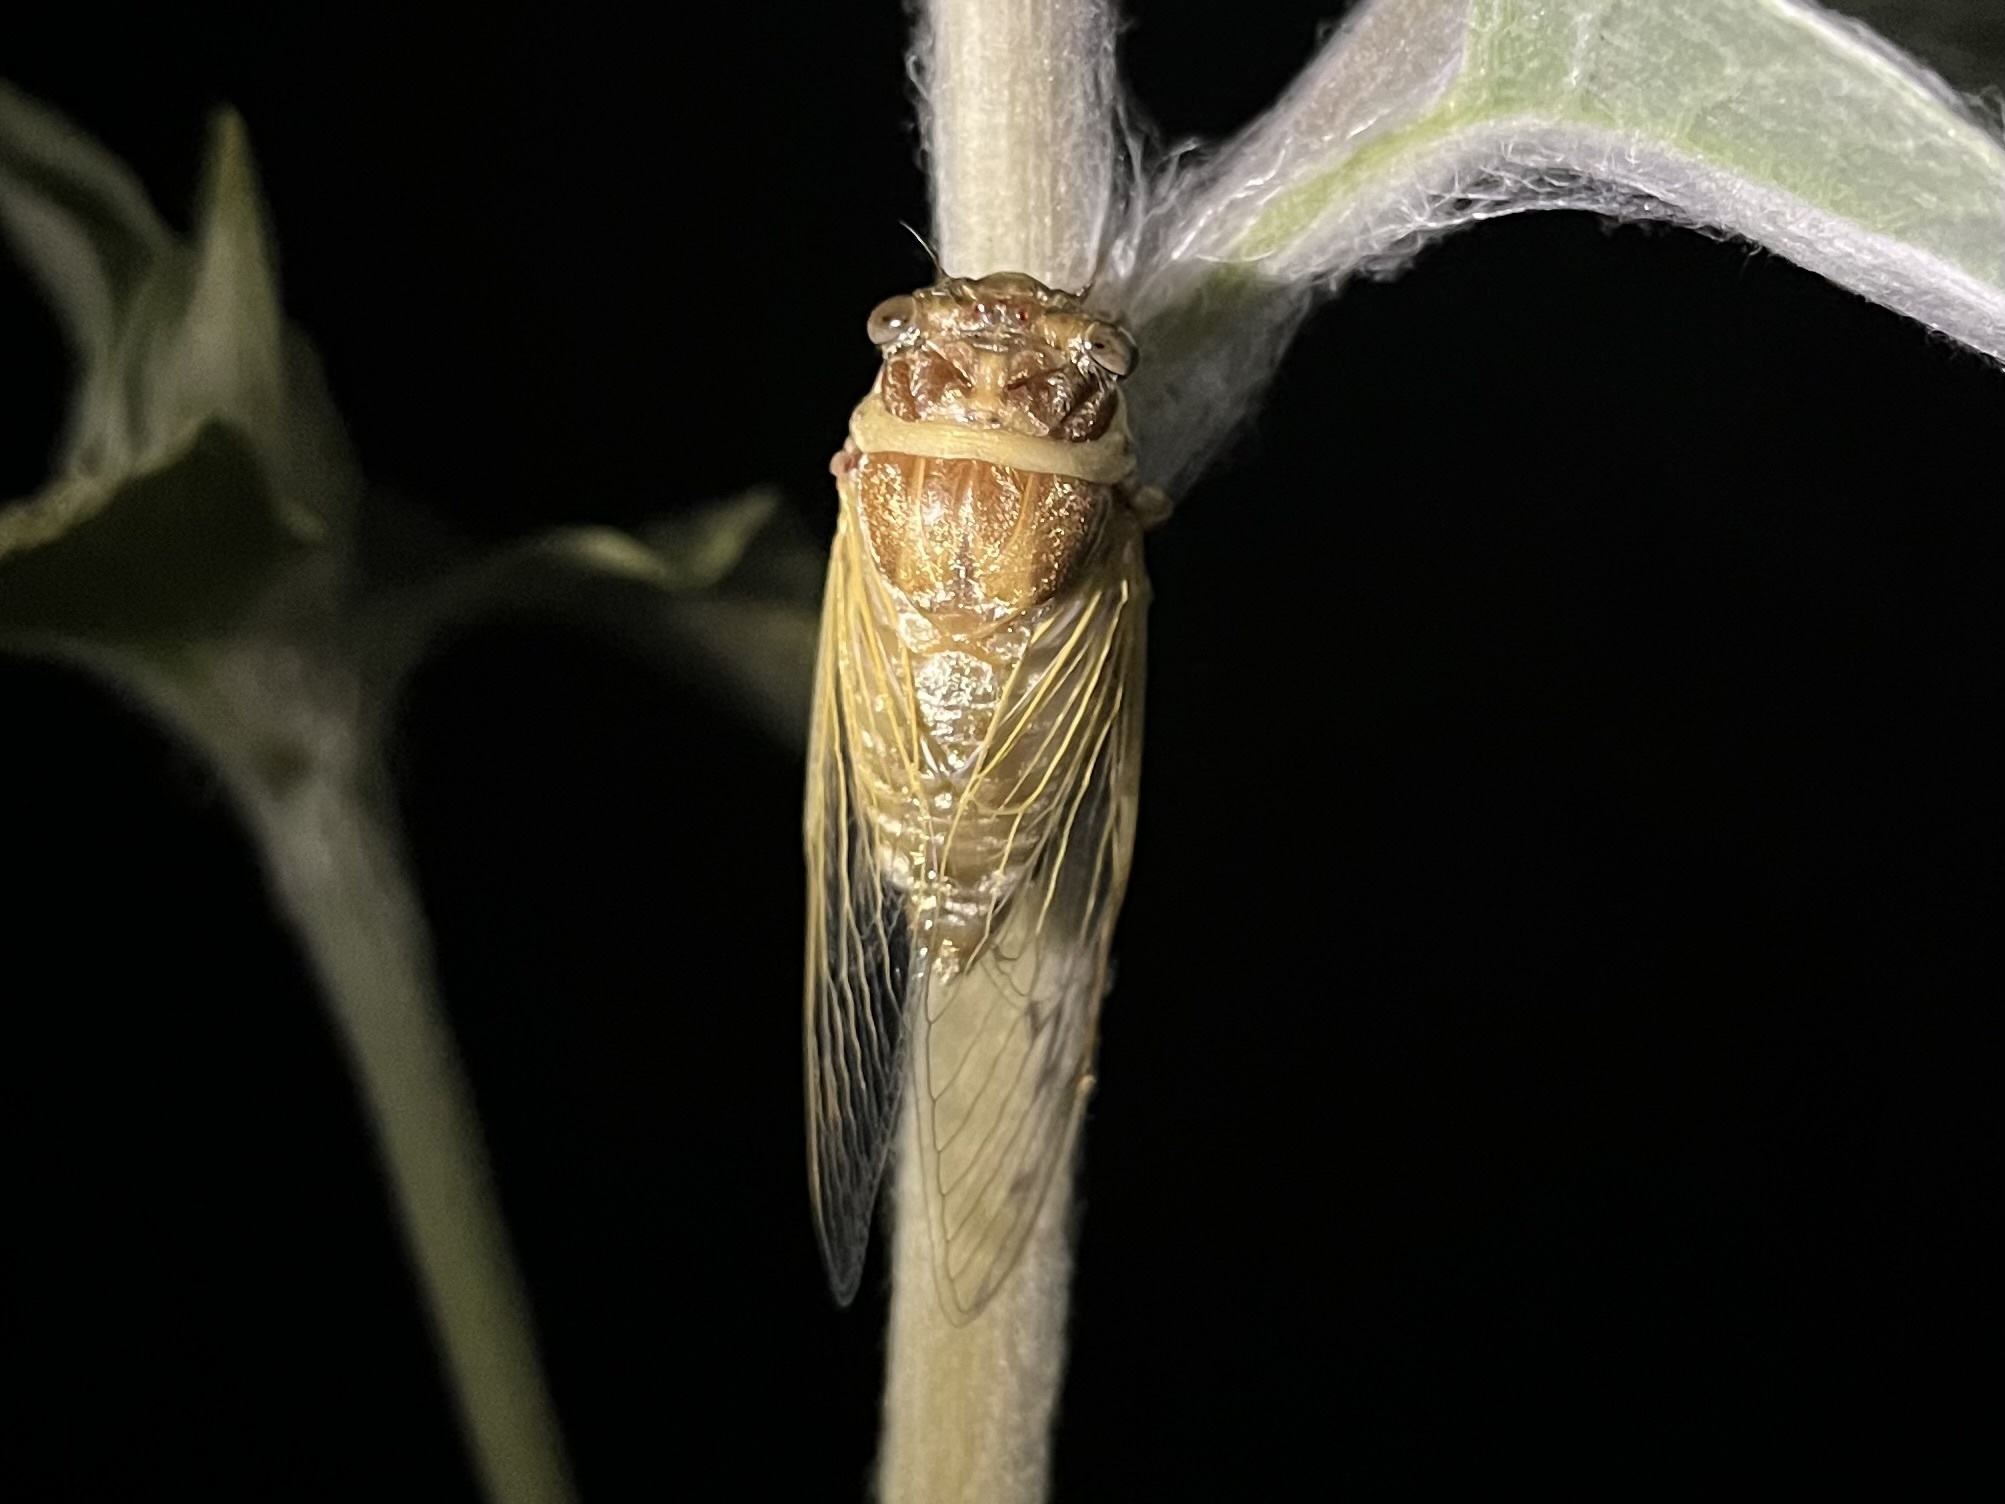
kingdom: Animalia
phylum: Arthropoda
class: Insecta
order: Hemiptera
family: Cicadidae
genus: Diceroprocta
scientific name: Diceroprocta marevagans
